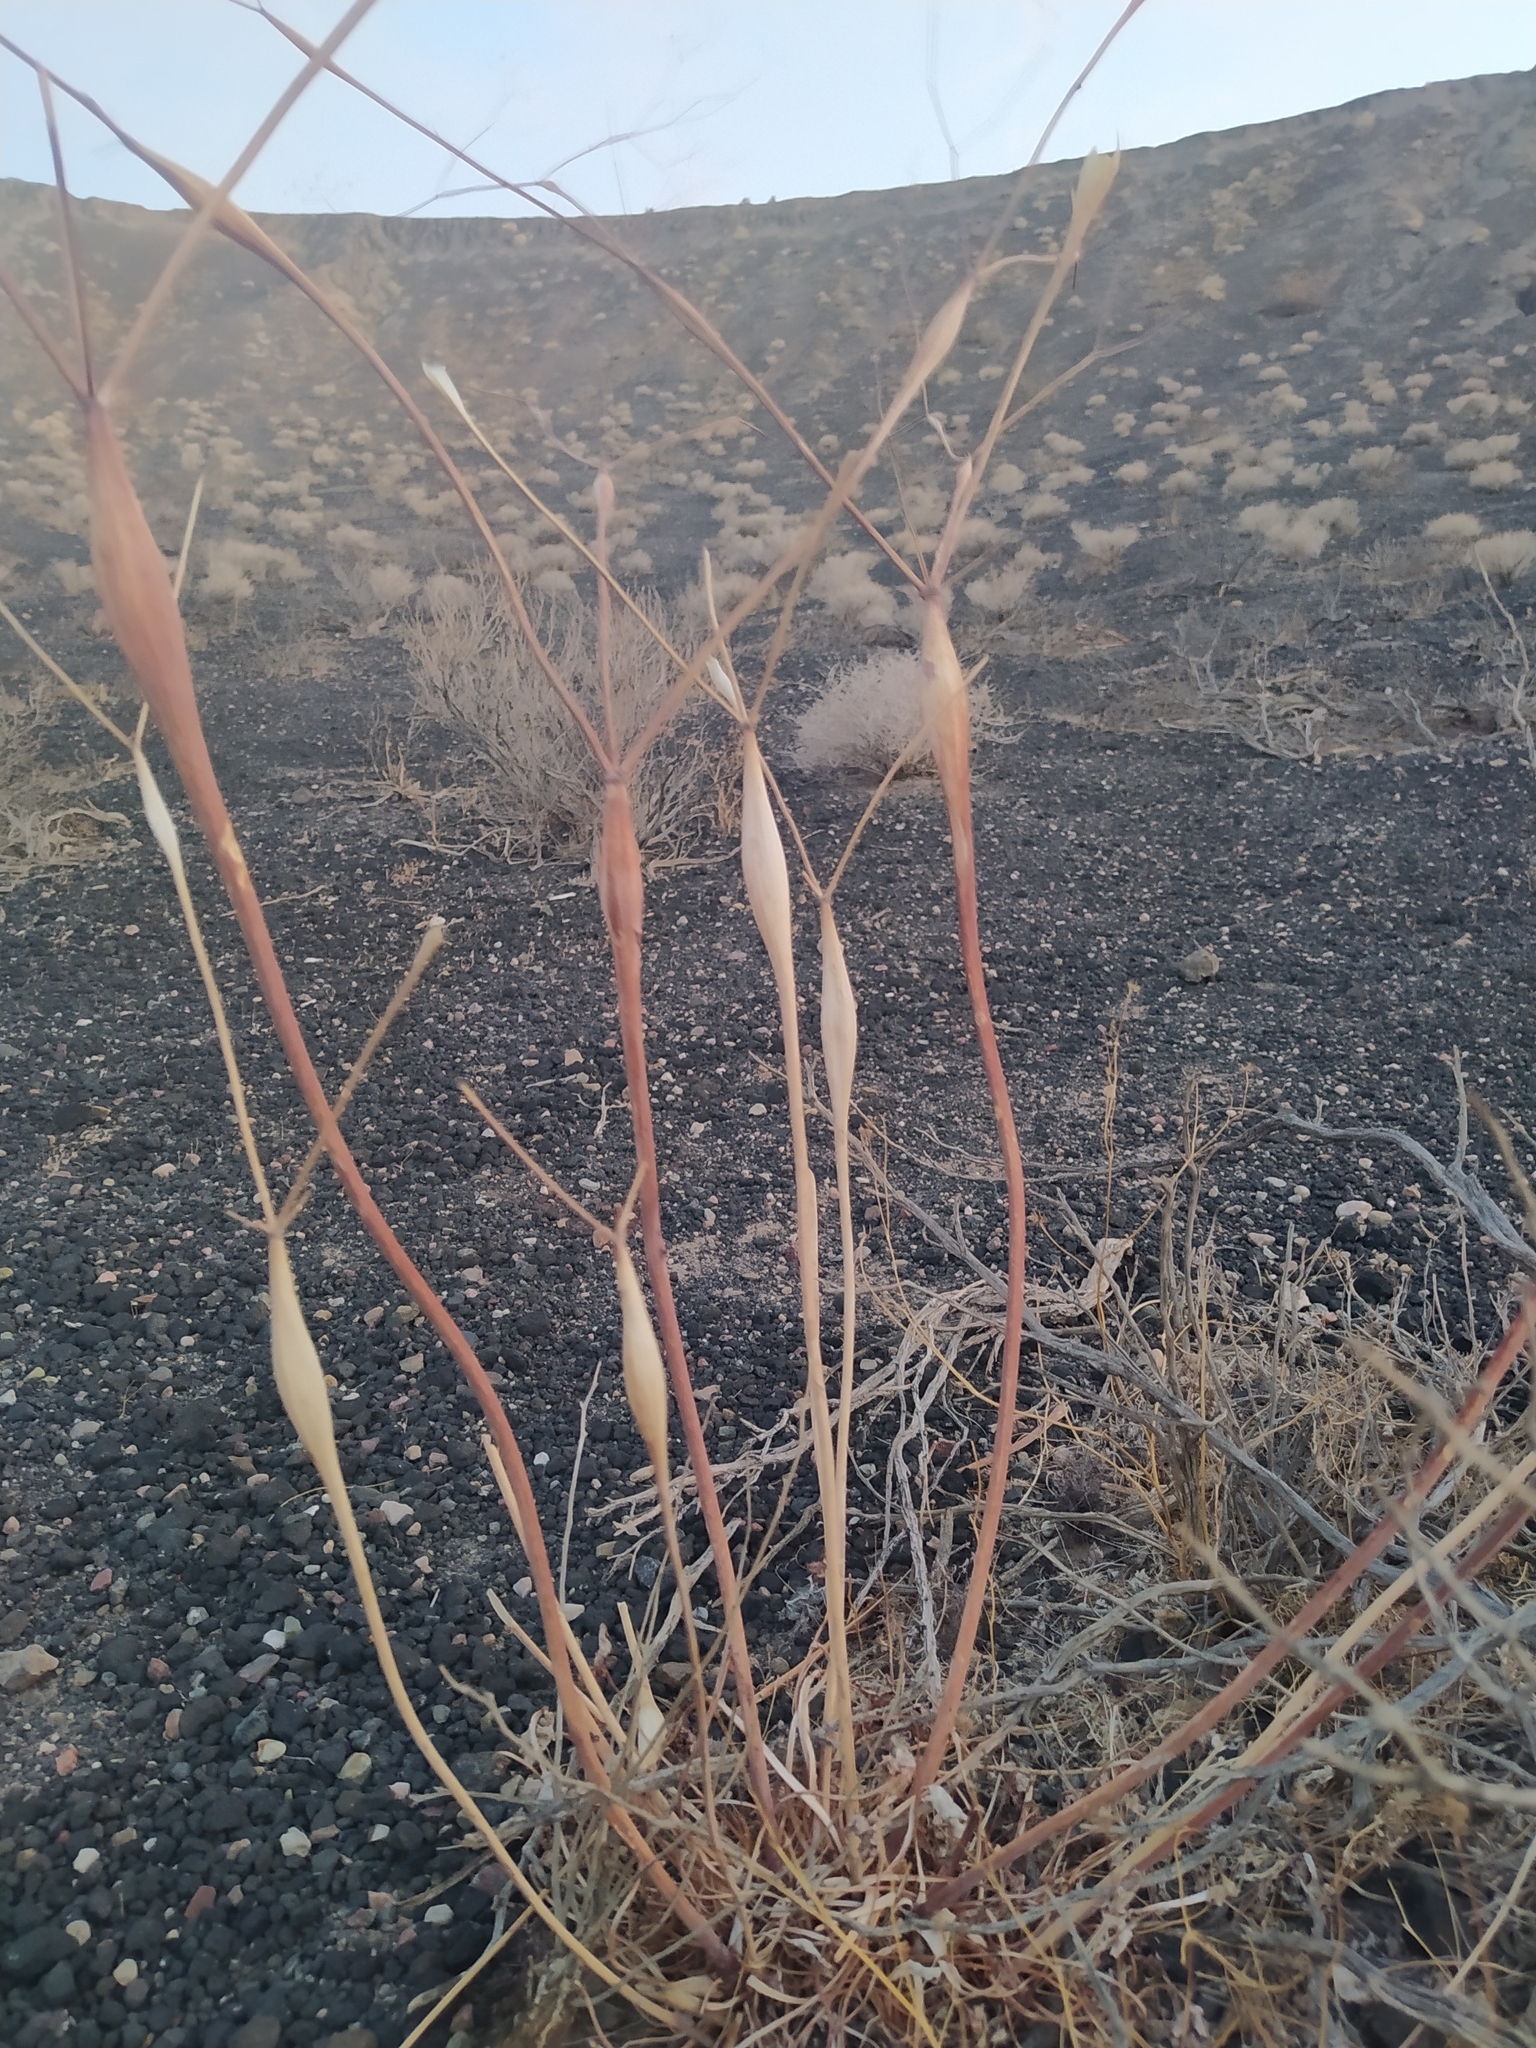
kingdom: Plantae
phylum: Tracheophyta
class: Magnoliopsida
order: Caryophyllales
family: Polygonaceae
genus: Eriogonum
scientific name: Eriogonum inflatum
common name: Desert trumpet
